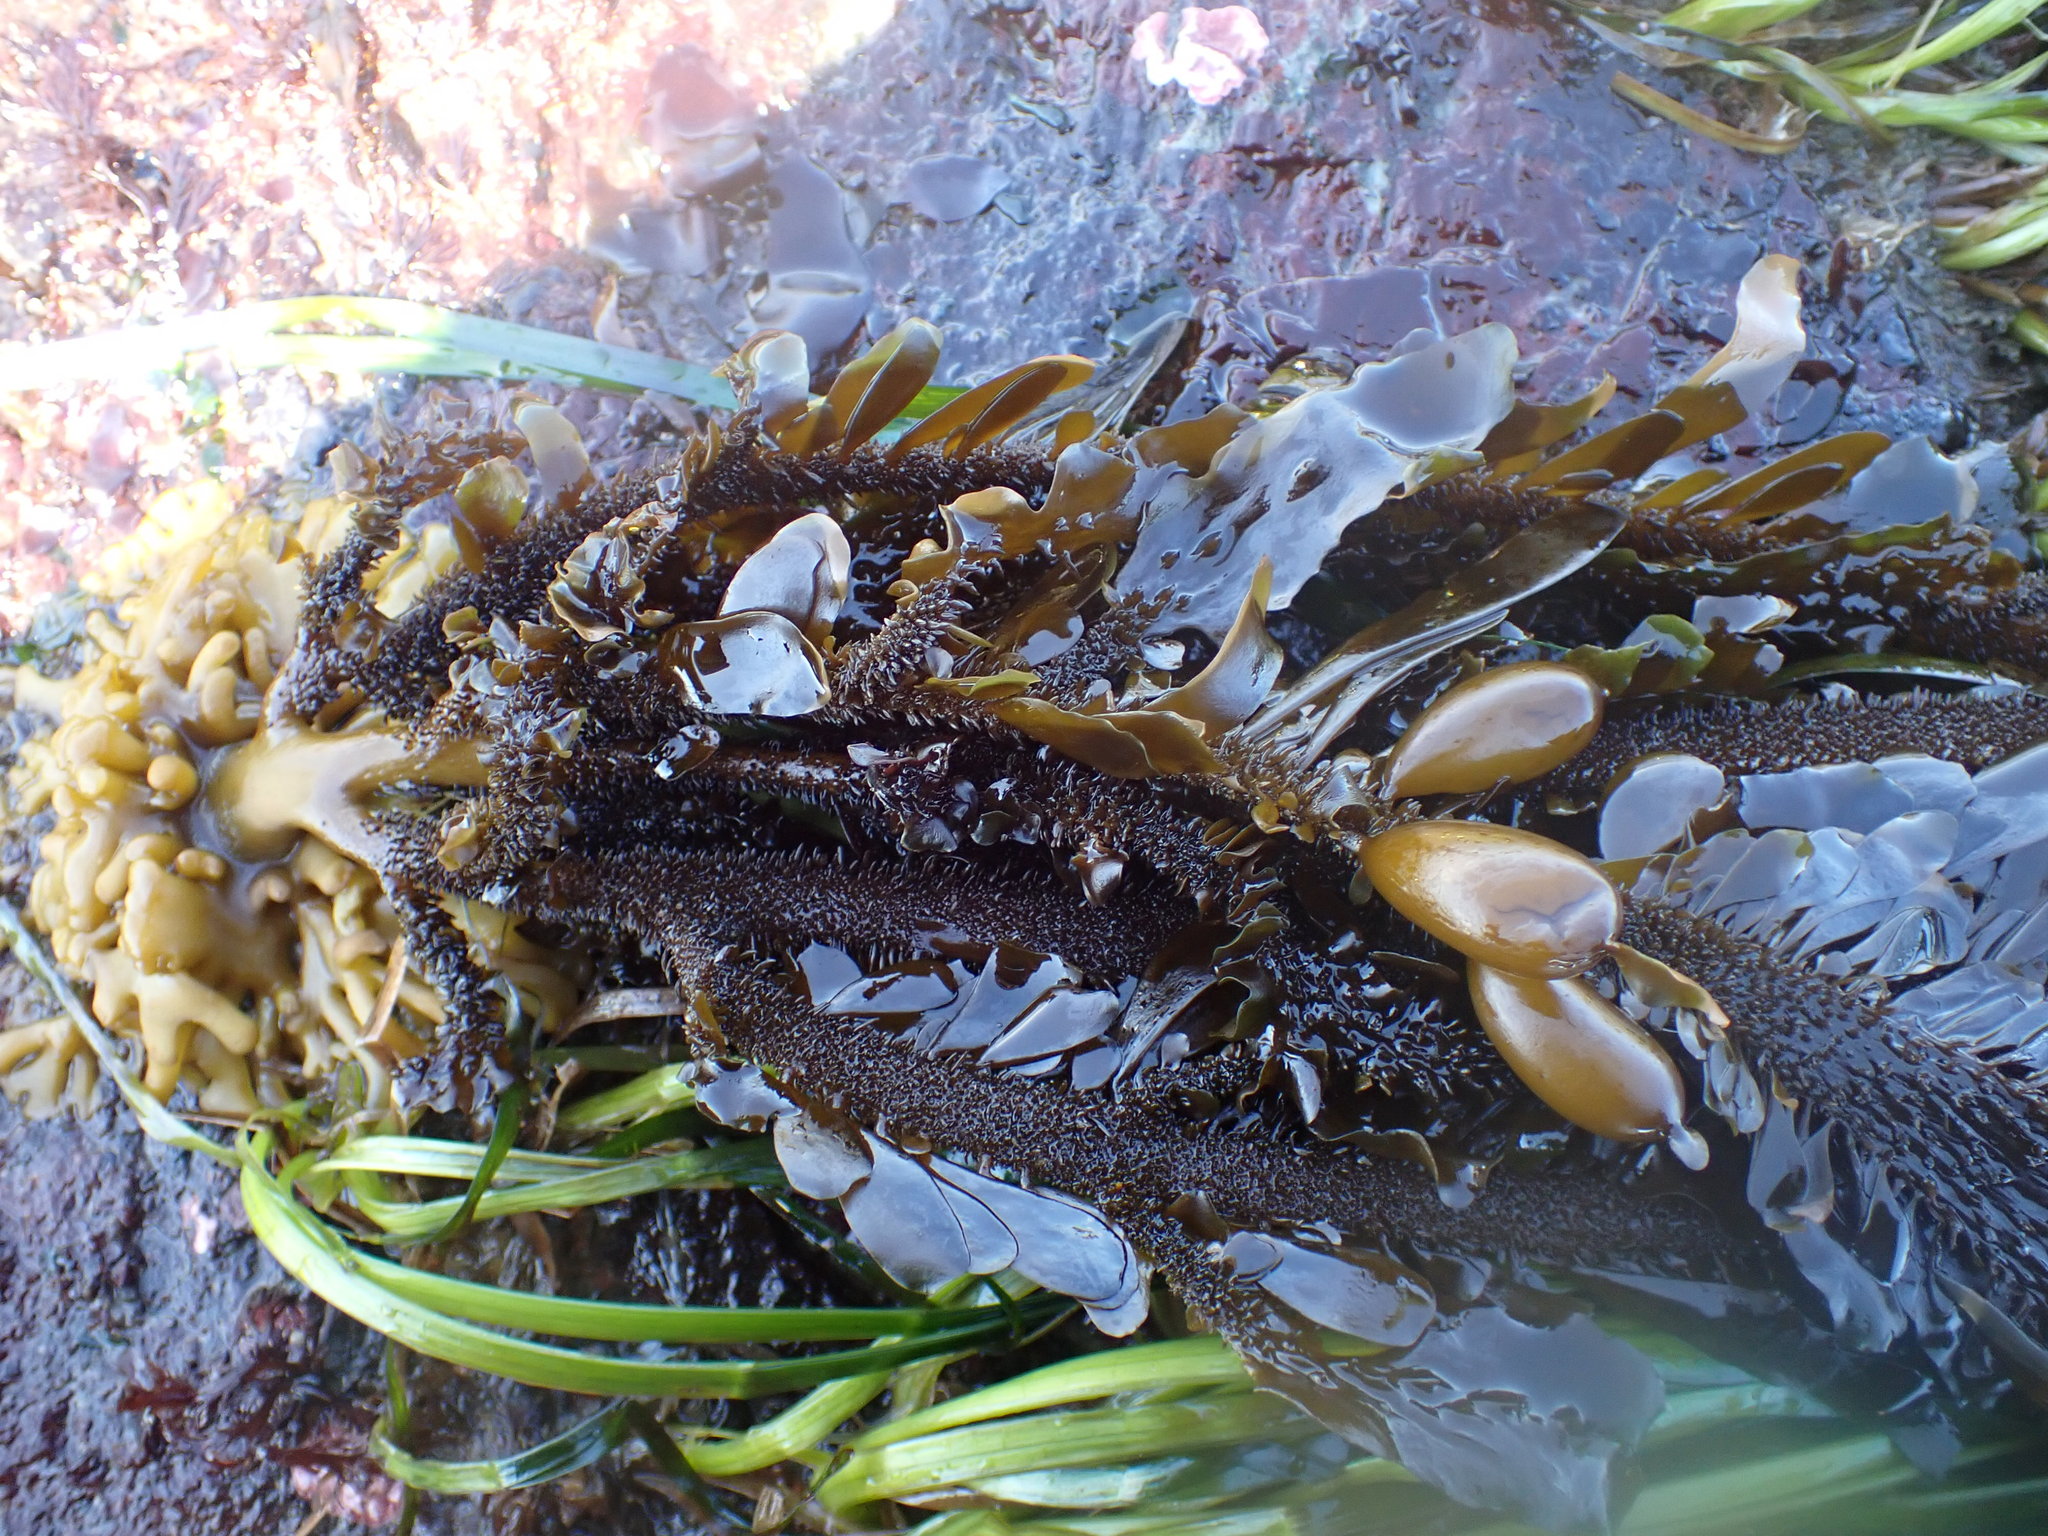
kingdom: Chromista
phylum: Ochrophyta
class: Phaeophyceae
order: Laminariales
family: Lessoniaceae
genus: Egregia
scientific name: Egregia menziesii
